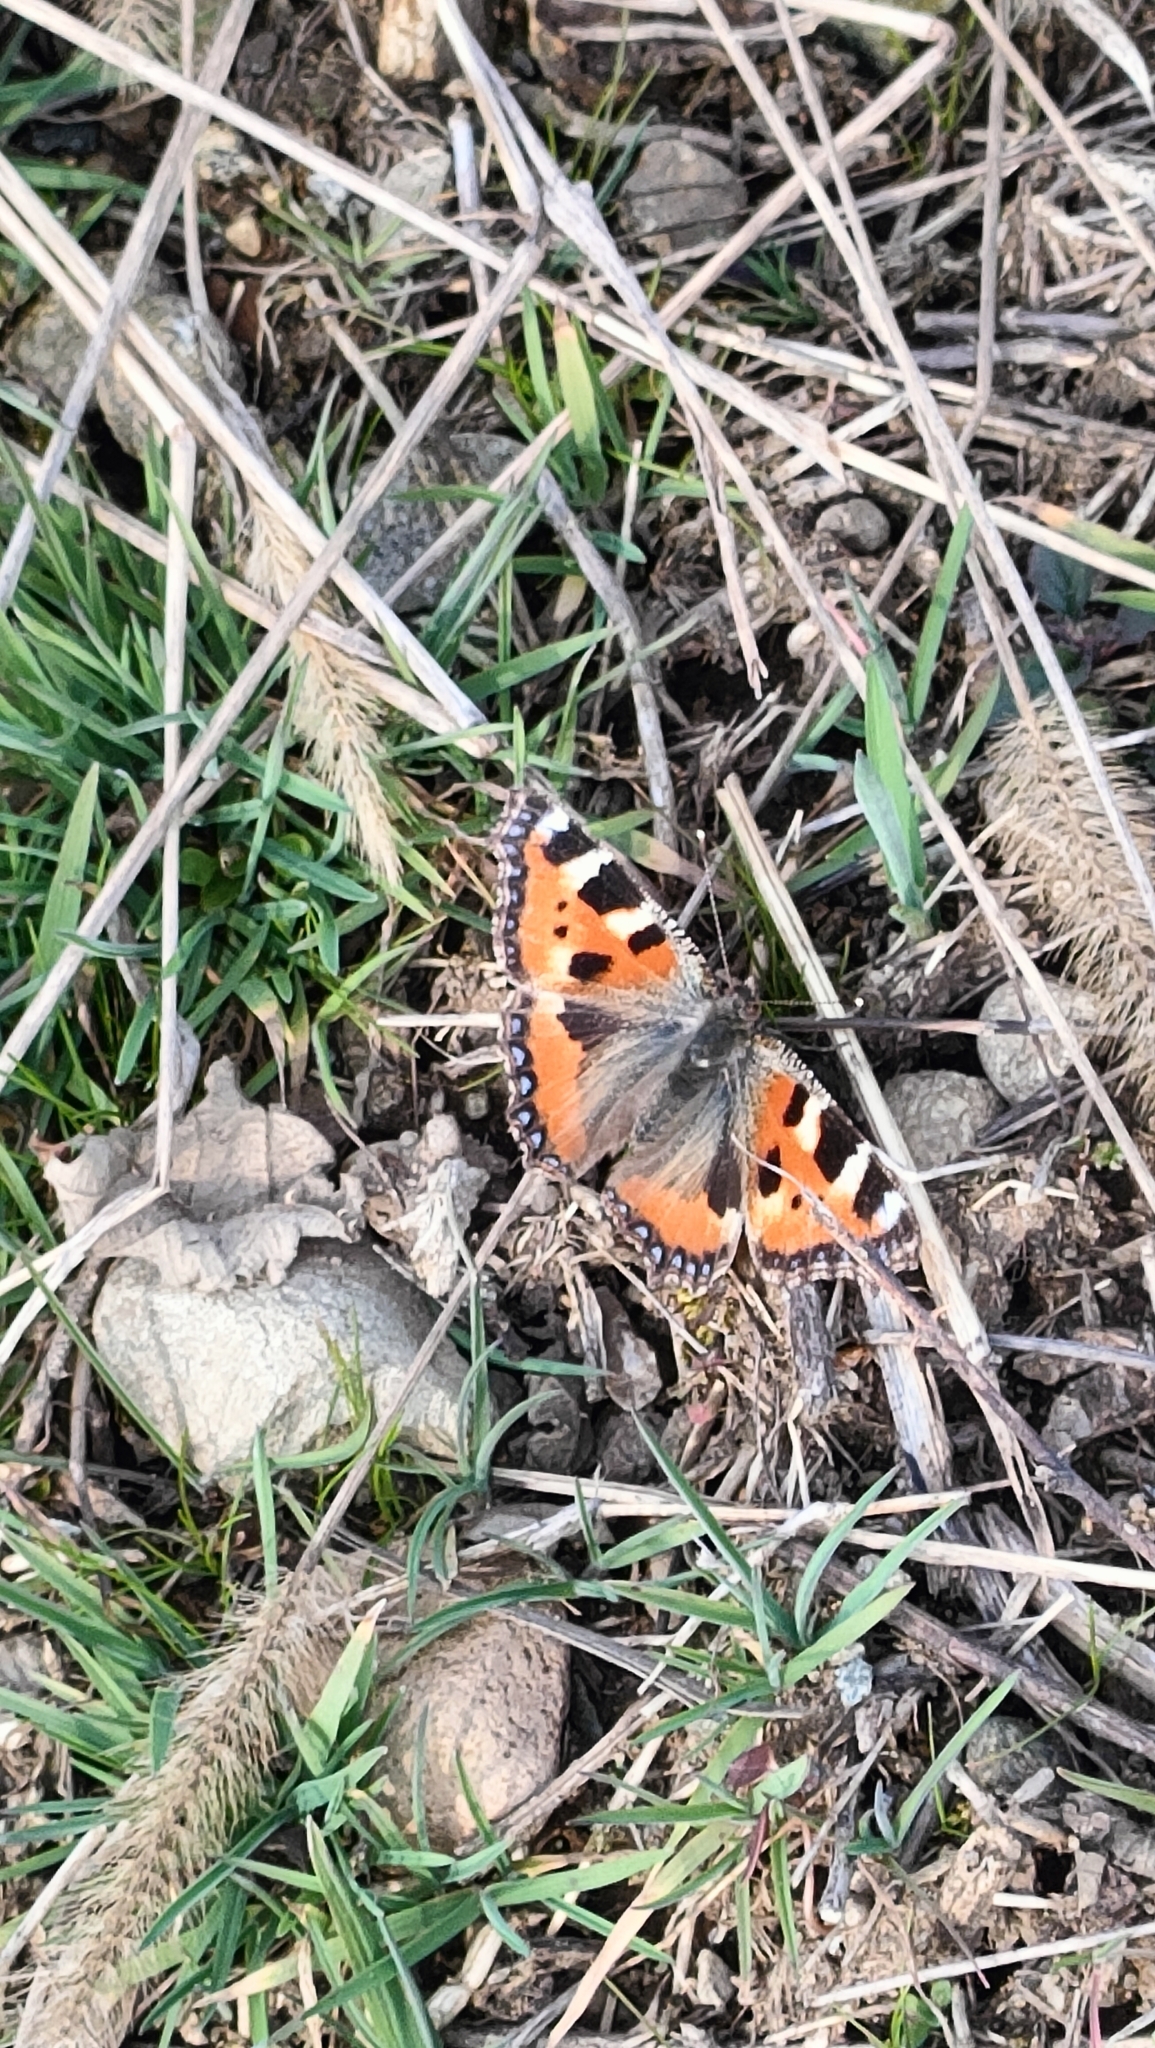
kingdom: Animalia
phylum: Arthropoda
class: Insecta
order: Lepidoptera
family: Nymphalidae
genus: Aglais
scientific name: Aglais urticae
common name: Small tortoiseshell
